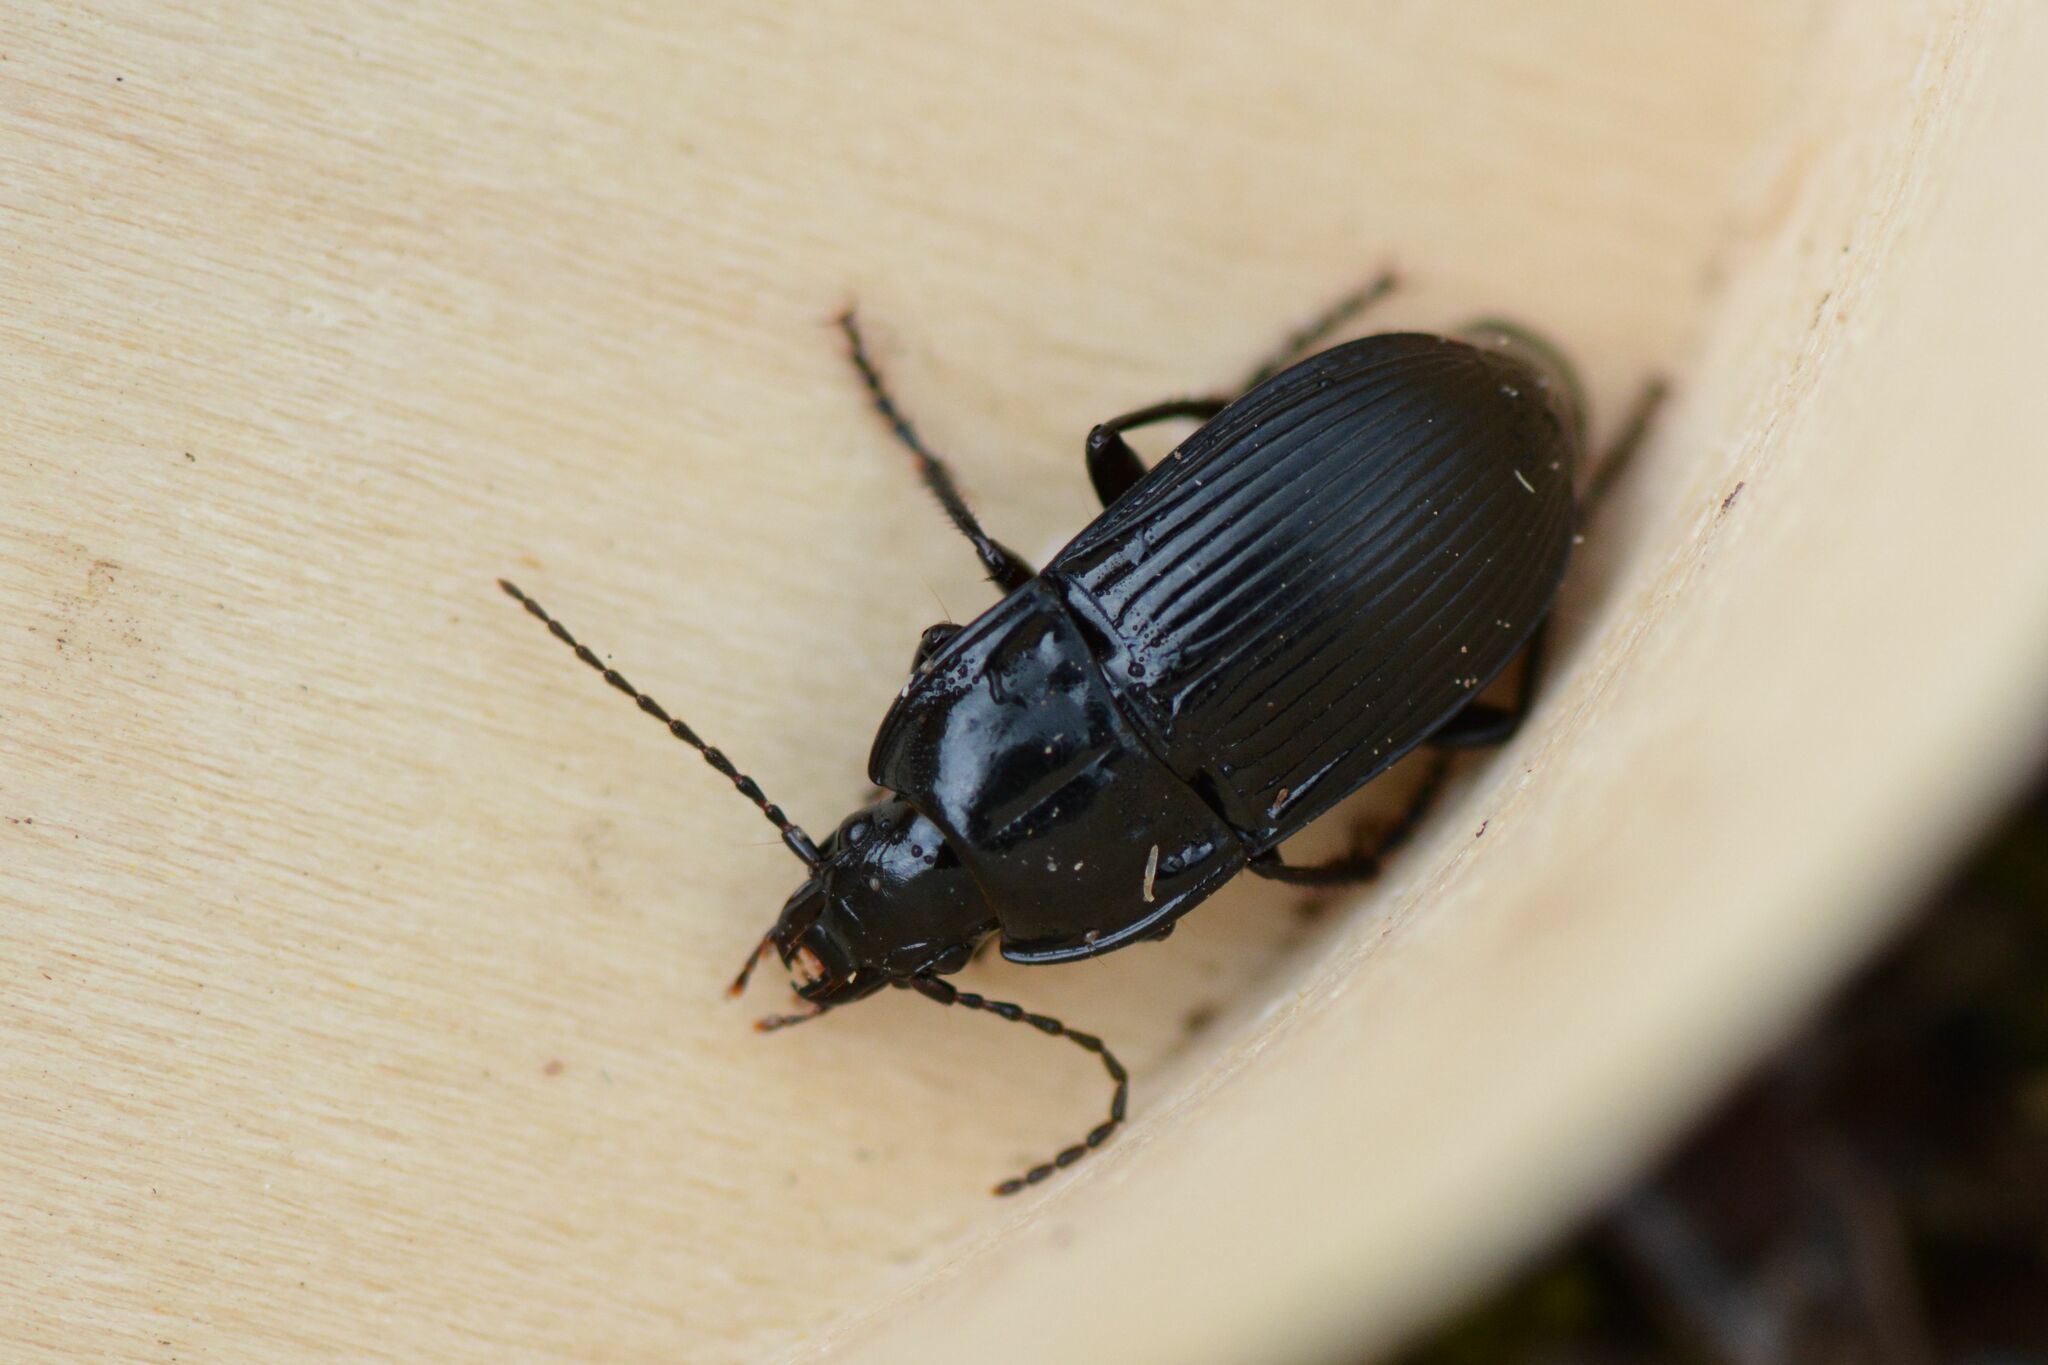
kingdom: Animalia
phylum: Arthropoda
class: Insecta
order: Coleoptera
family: Carabidae
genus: Abax
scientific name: Abax ovalis
